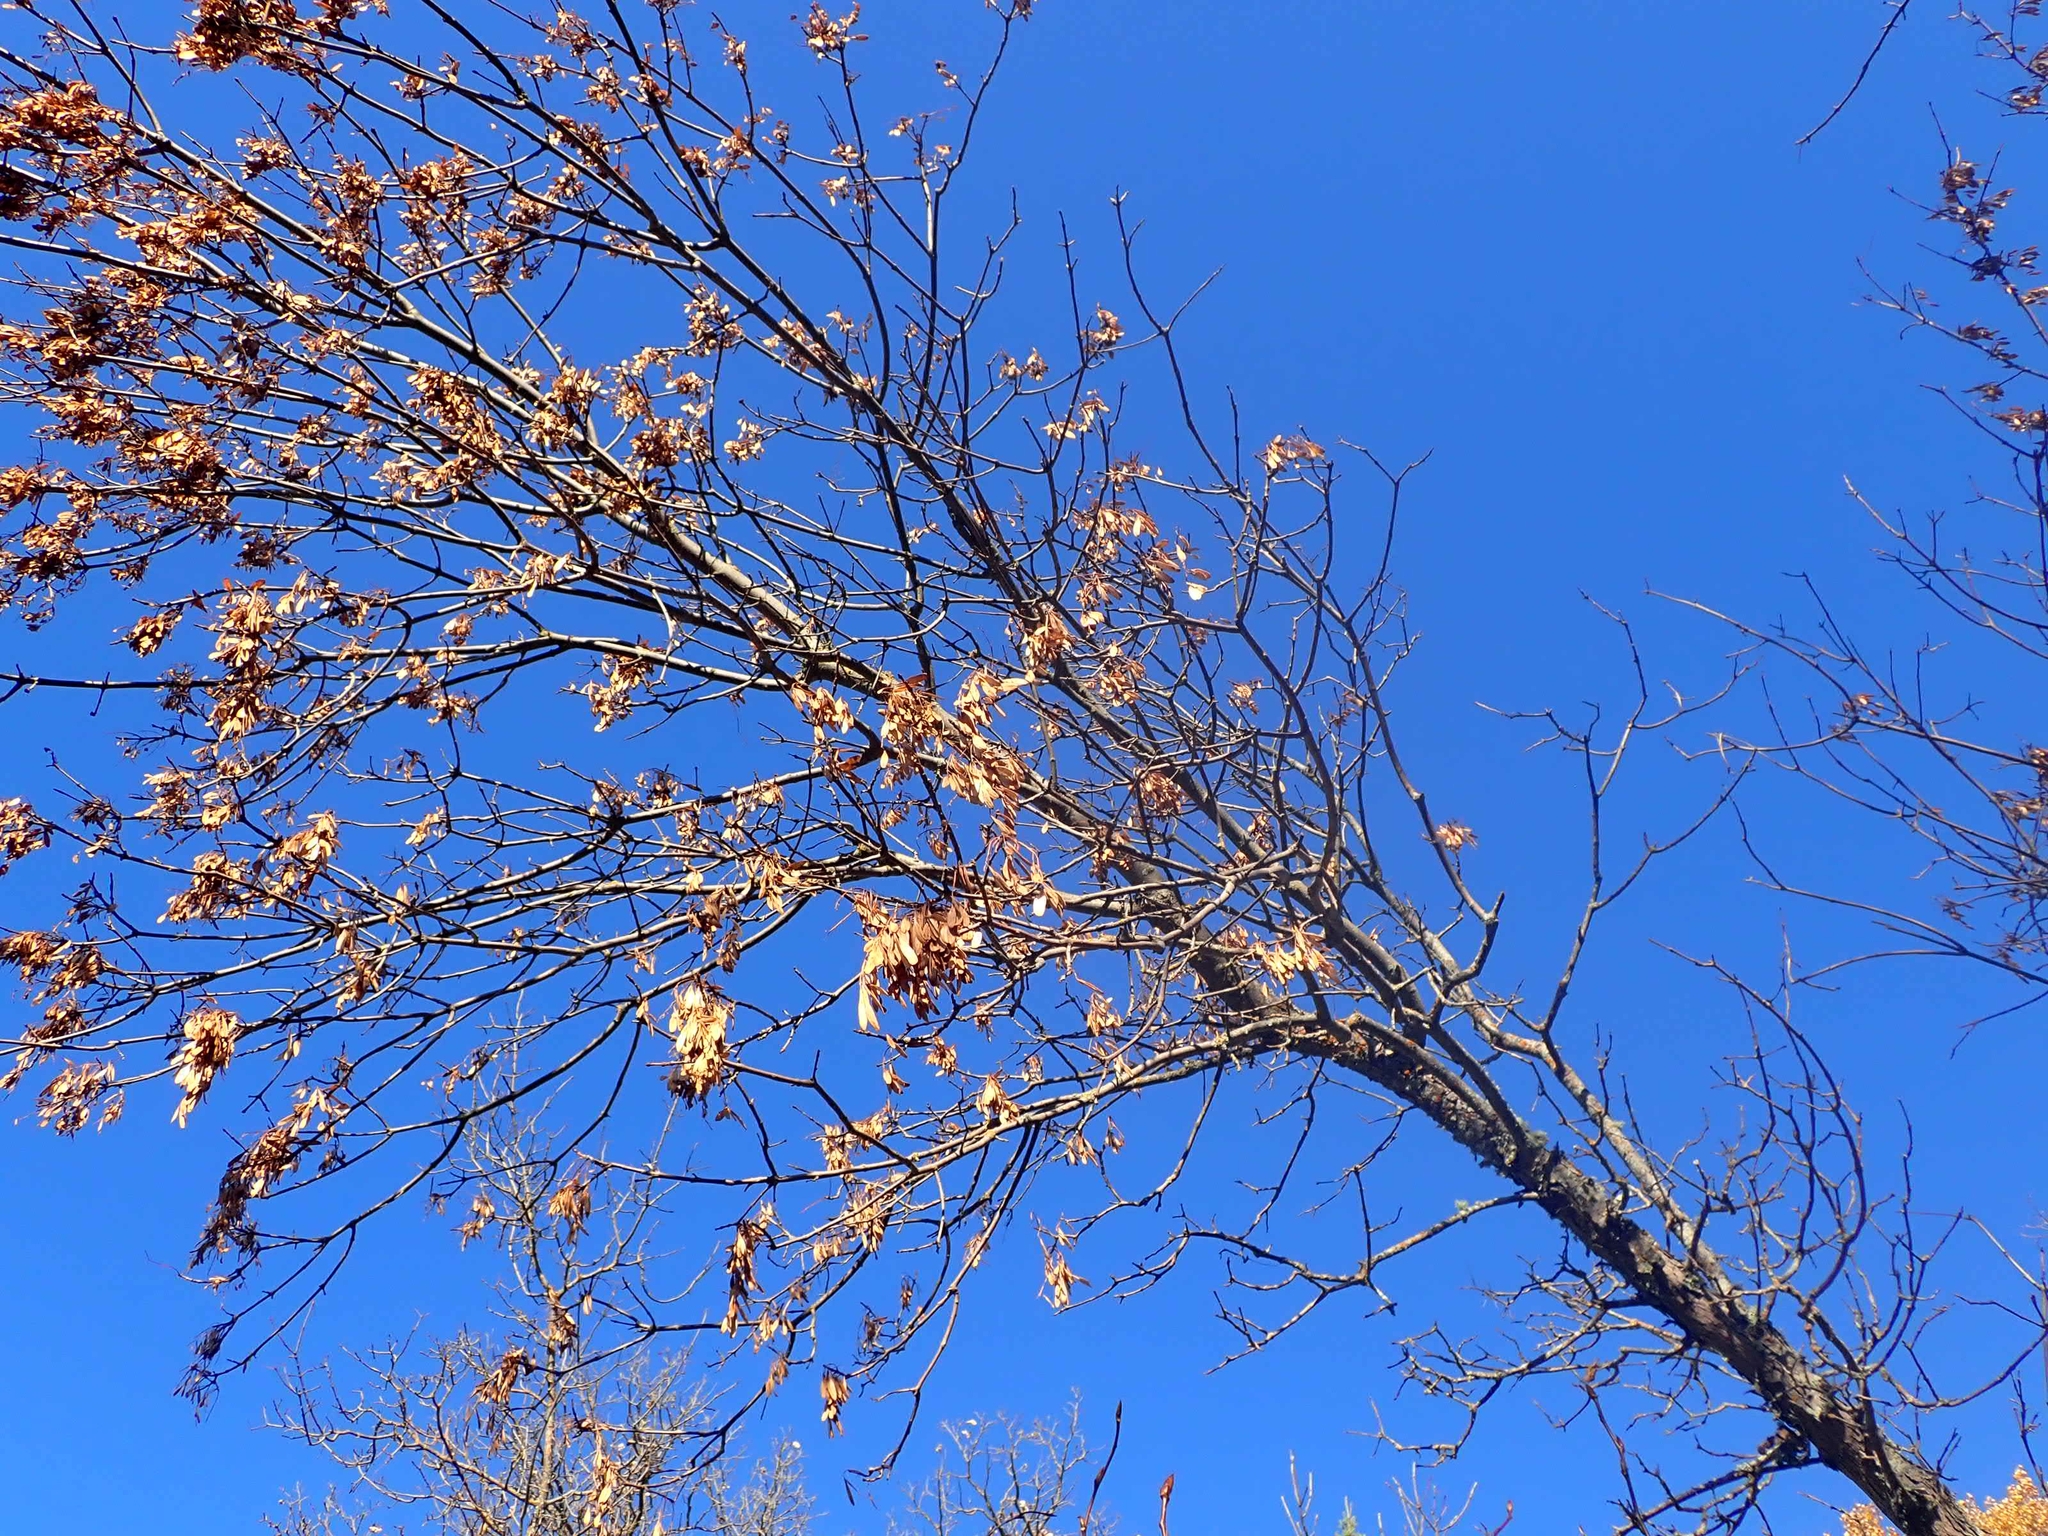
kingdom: Plantae
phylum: Tracheophyta
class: Magnoliopsida
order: Sapindales
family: Sapindaceae
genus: Acer
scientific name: Acer negundo
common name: Ashleaf maple
